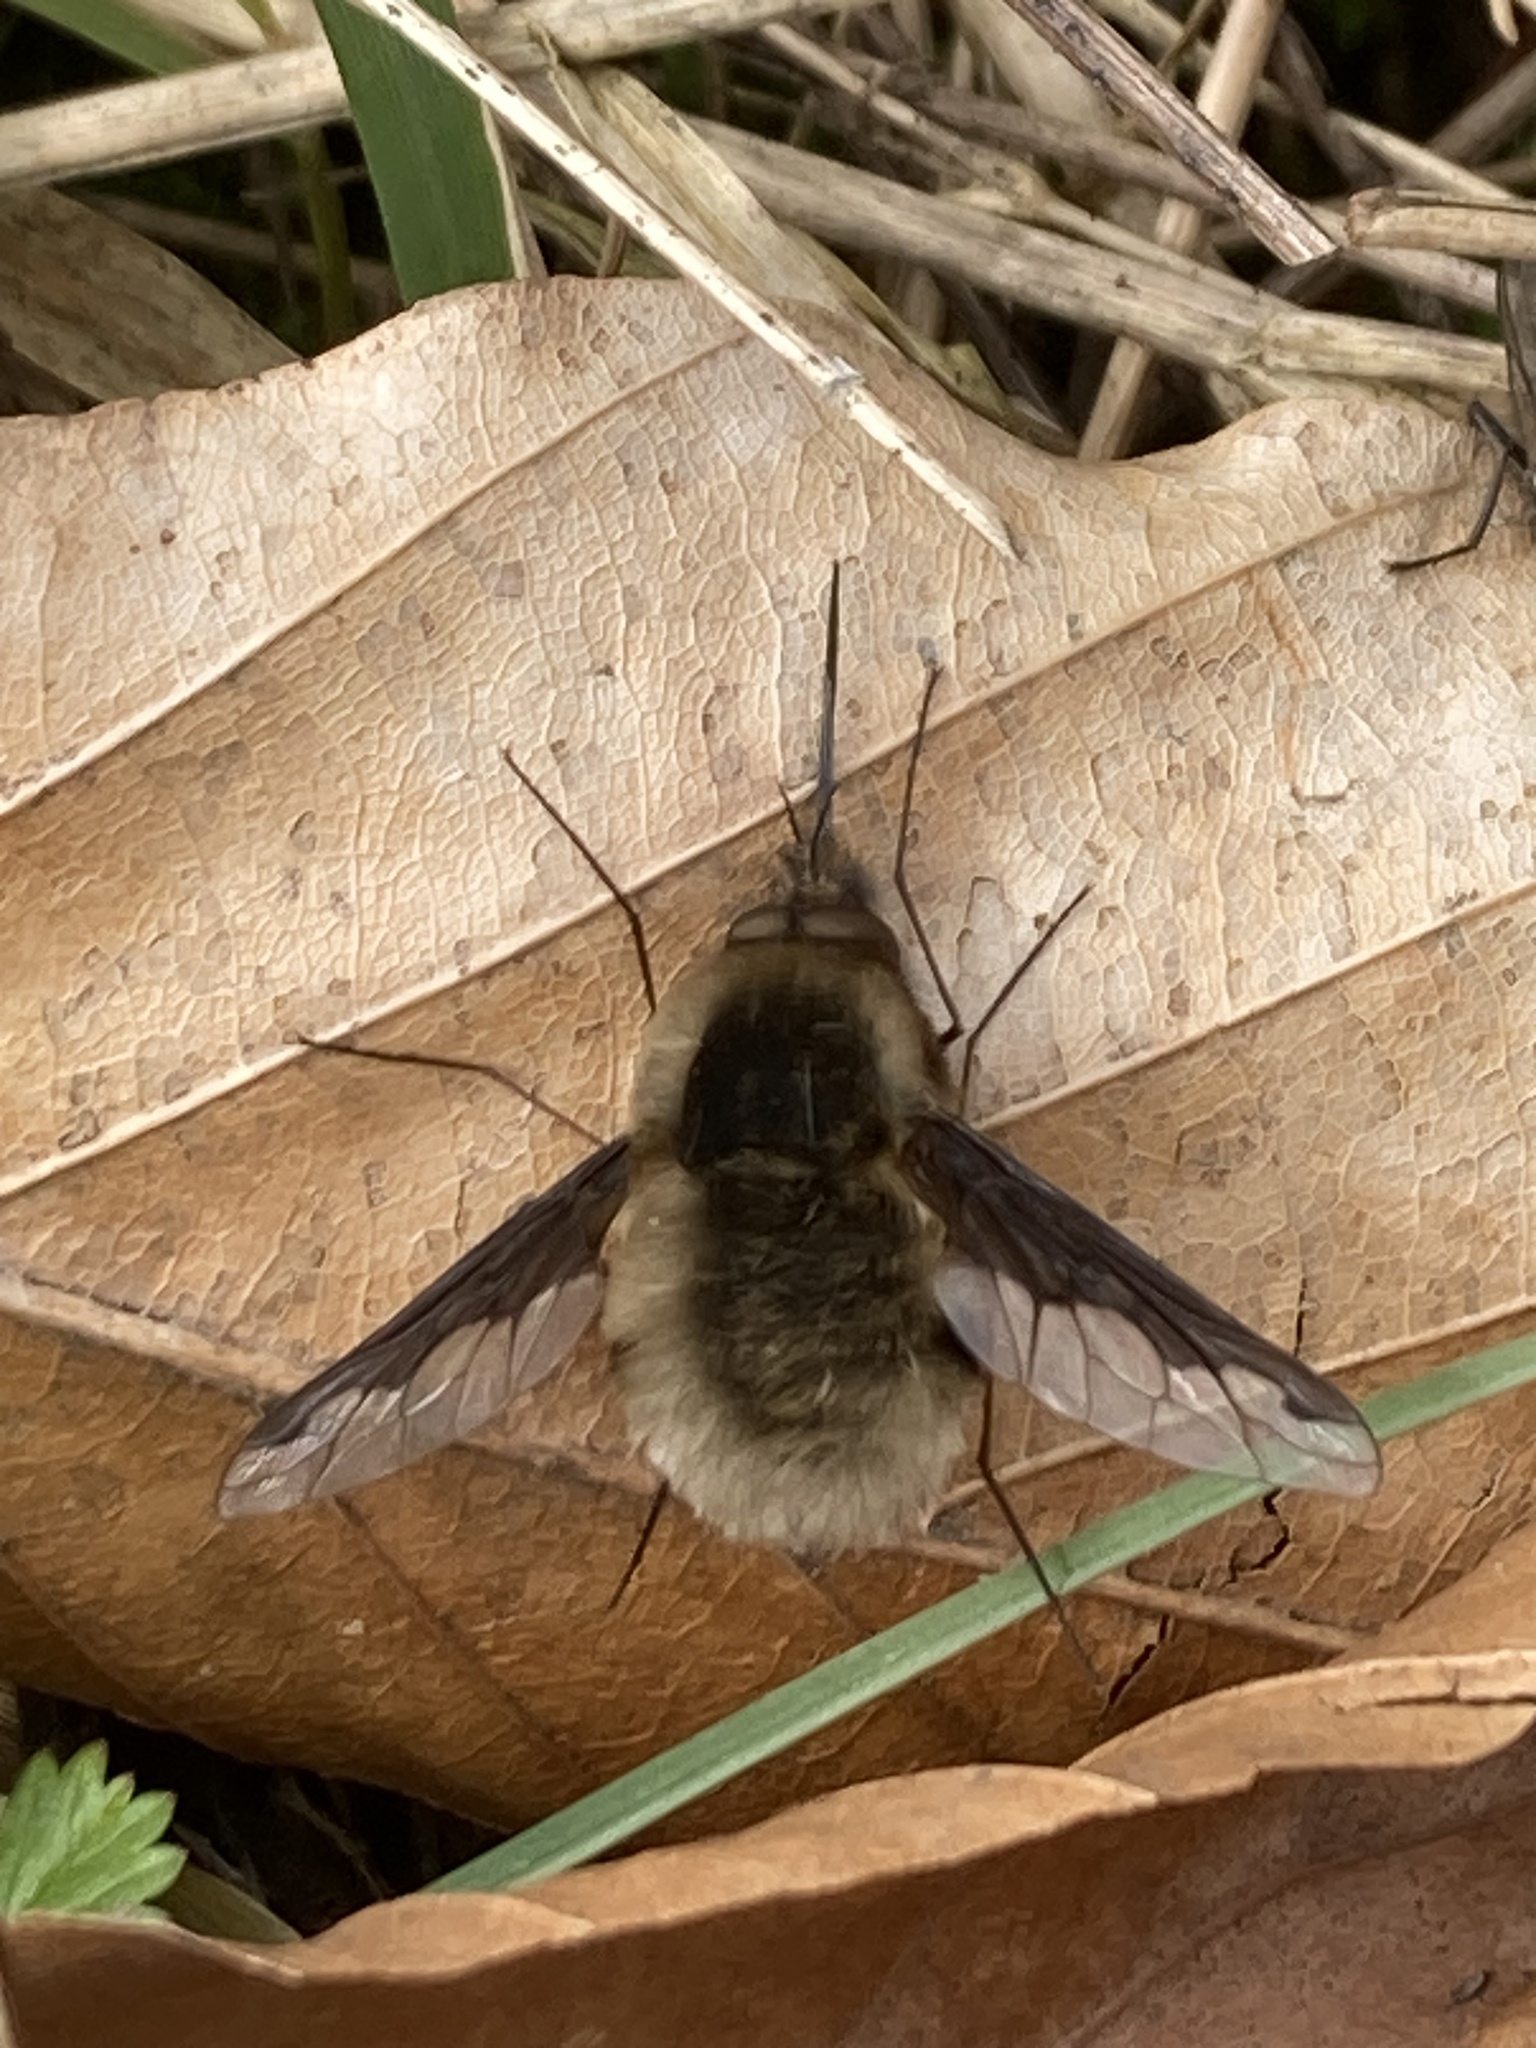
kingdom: Animalia
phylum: Arthropoda
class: Insecta
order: Diptera
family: Bombyliidae
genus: Bombylius
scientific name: Bombylius major
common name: Bee fly
